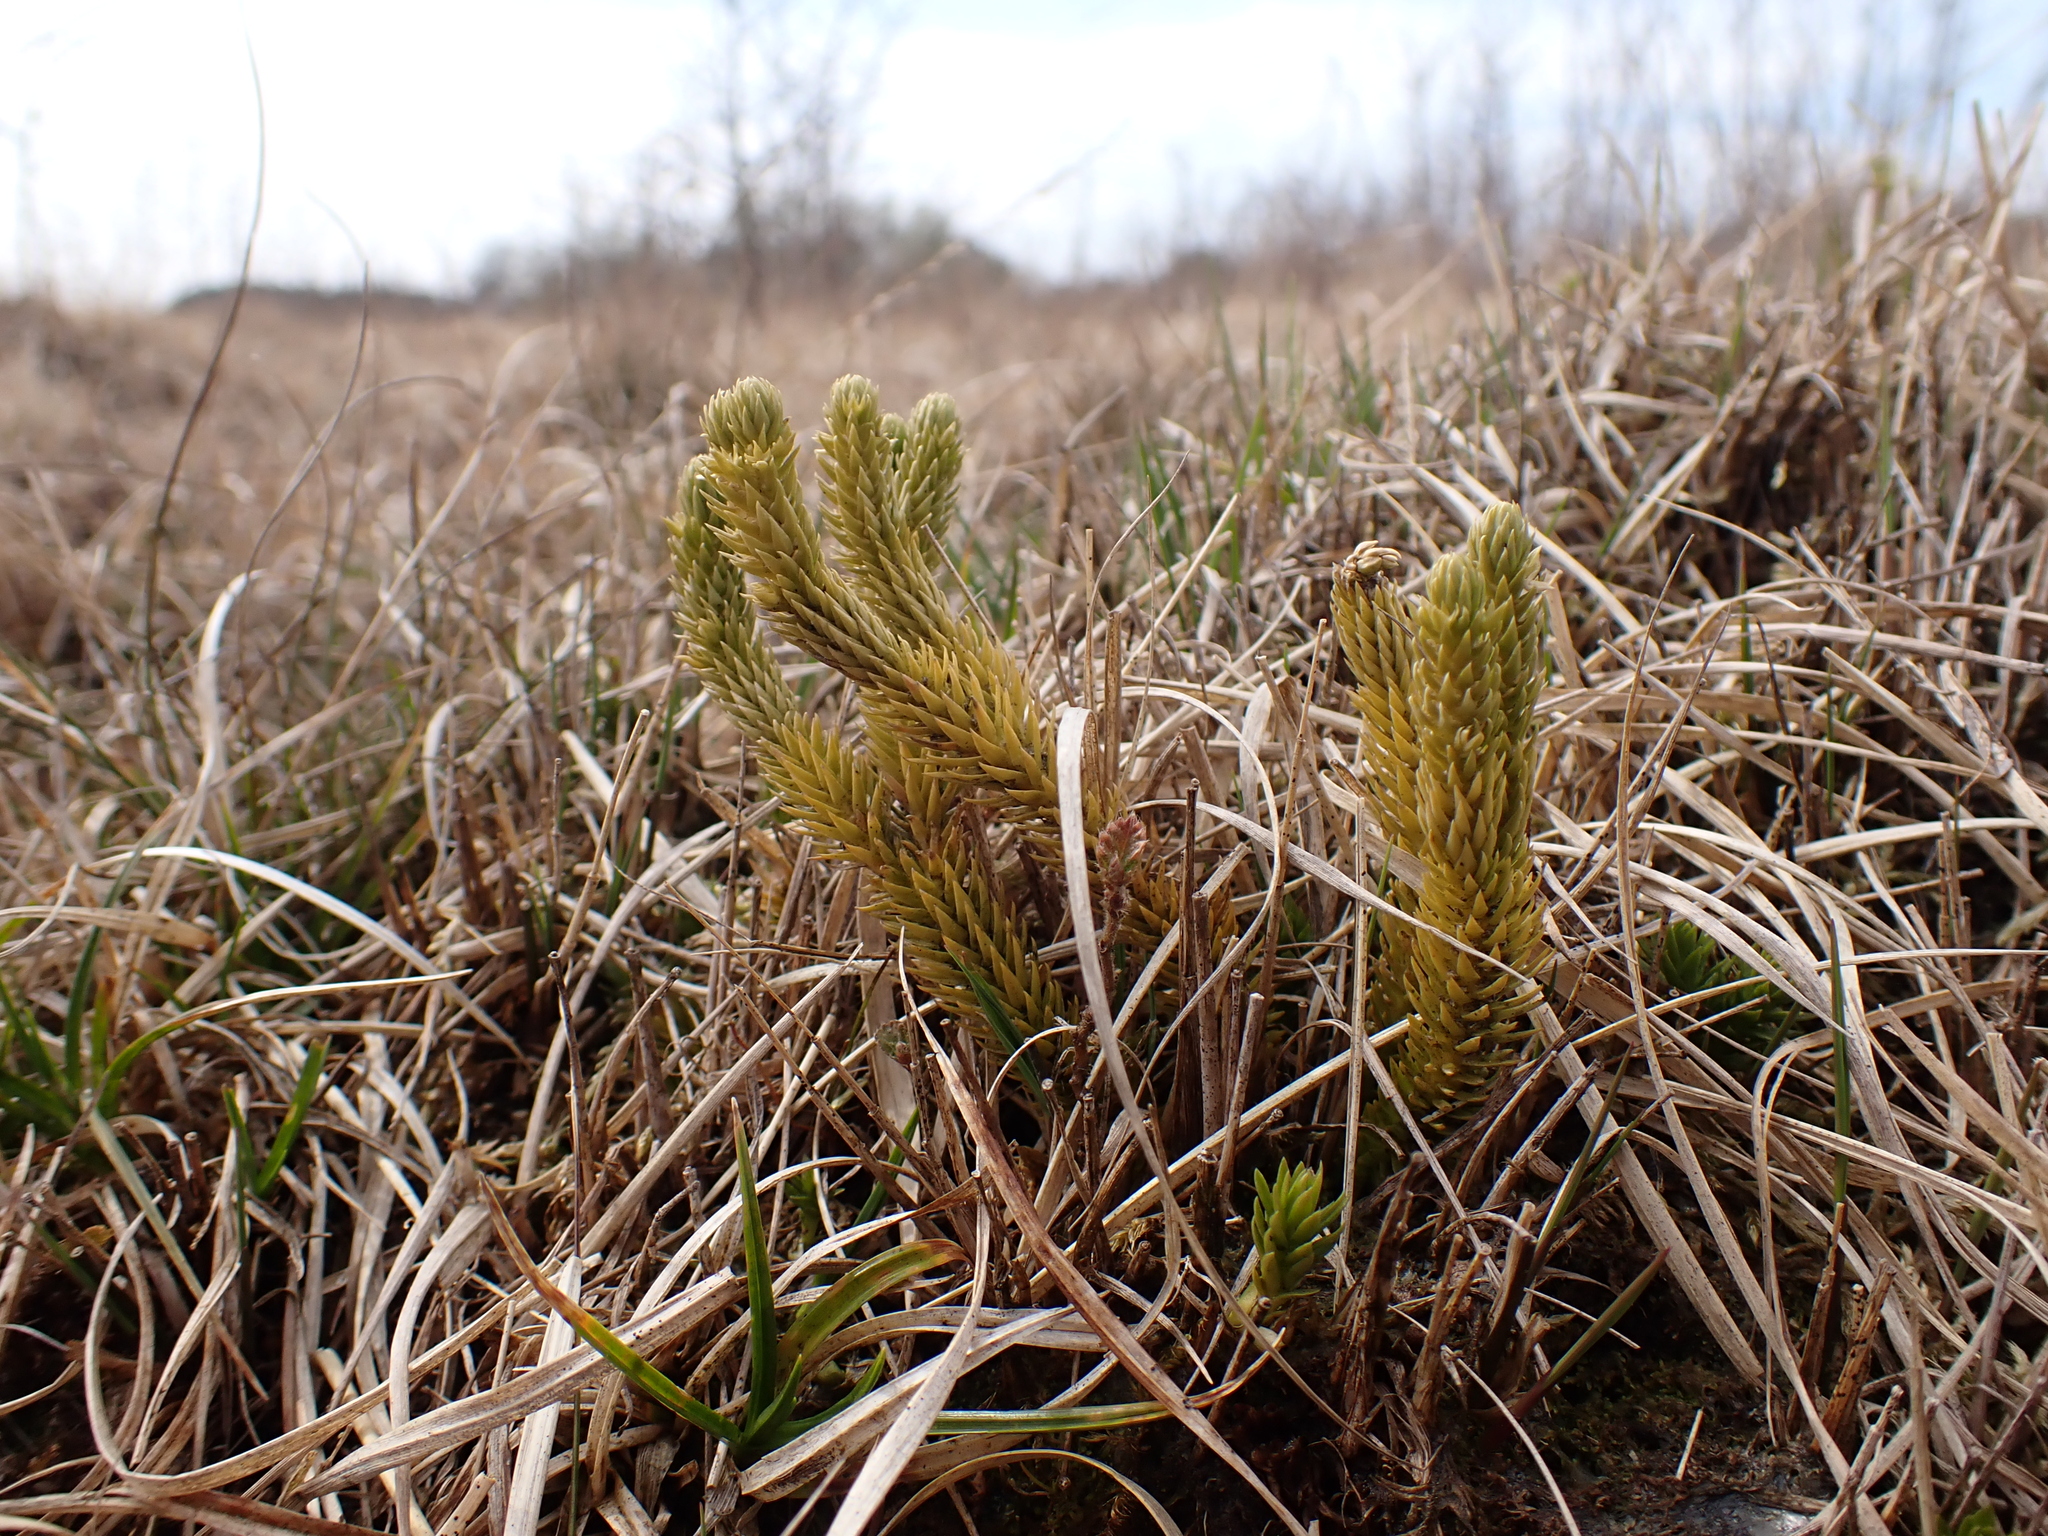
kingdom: Plantae
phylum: Tracheophyta
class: Lycopodiopsida
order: Lycopodiales
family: Lycopodiaceae
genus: Huperzia
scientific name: Huperzia selago
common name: Northern firmoss
